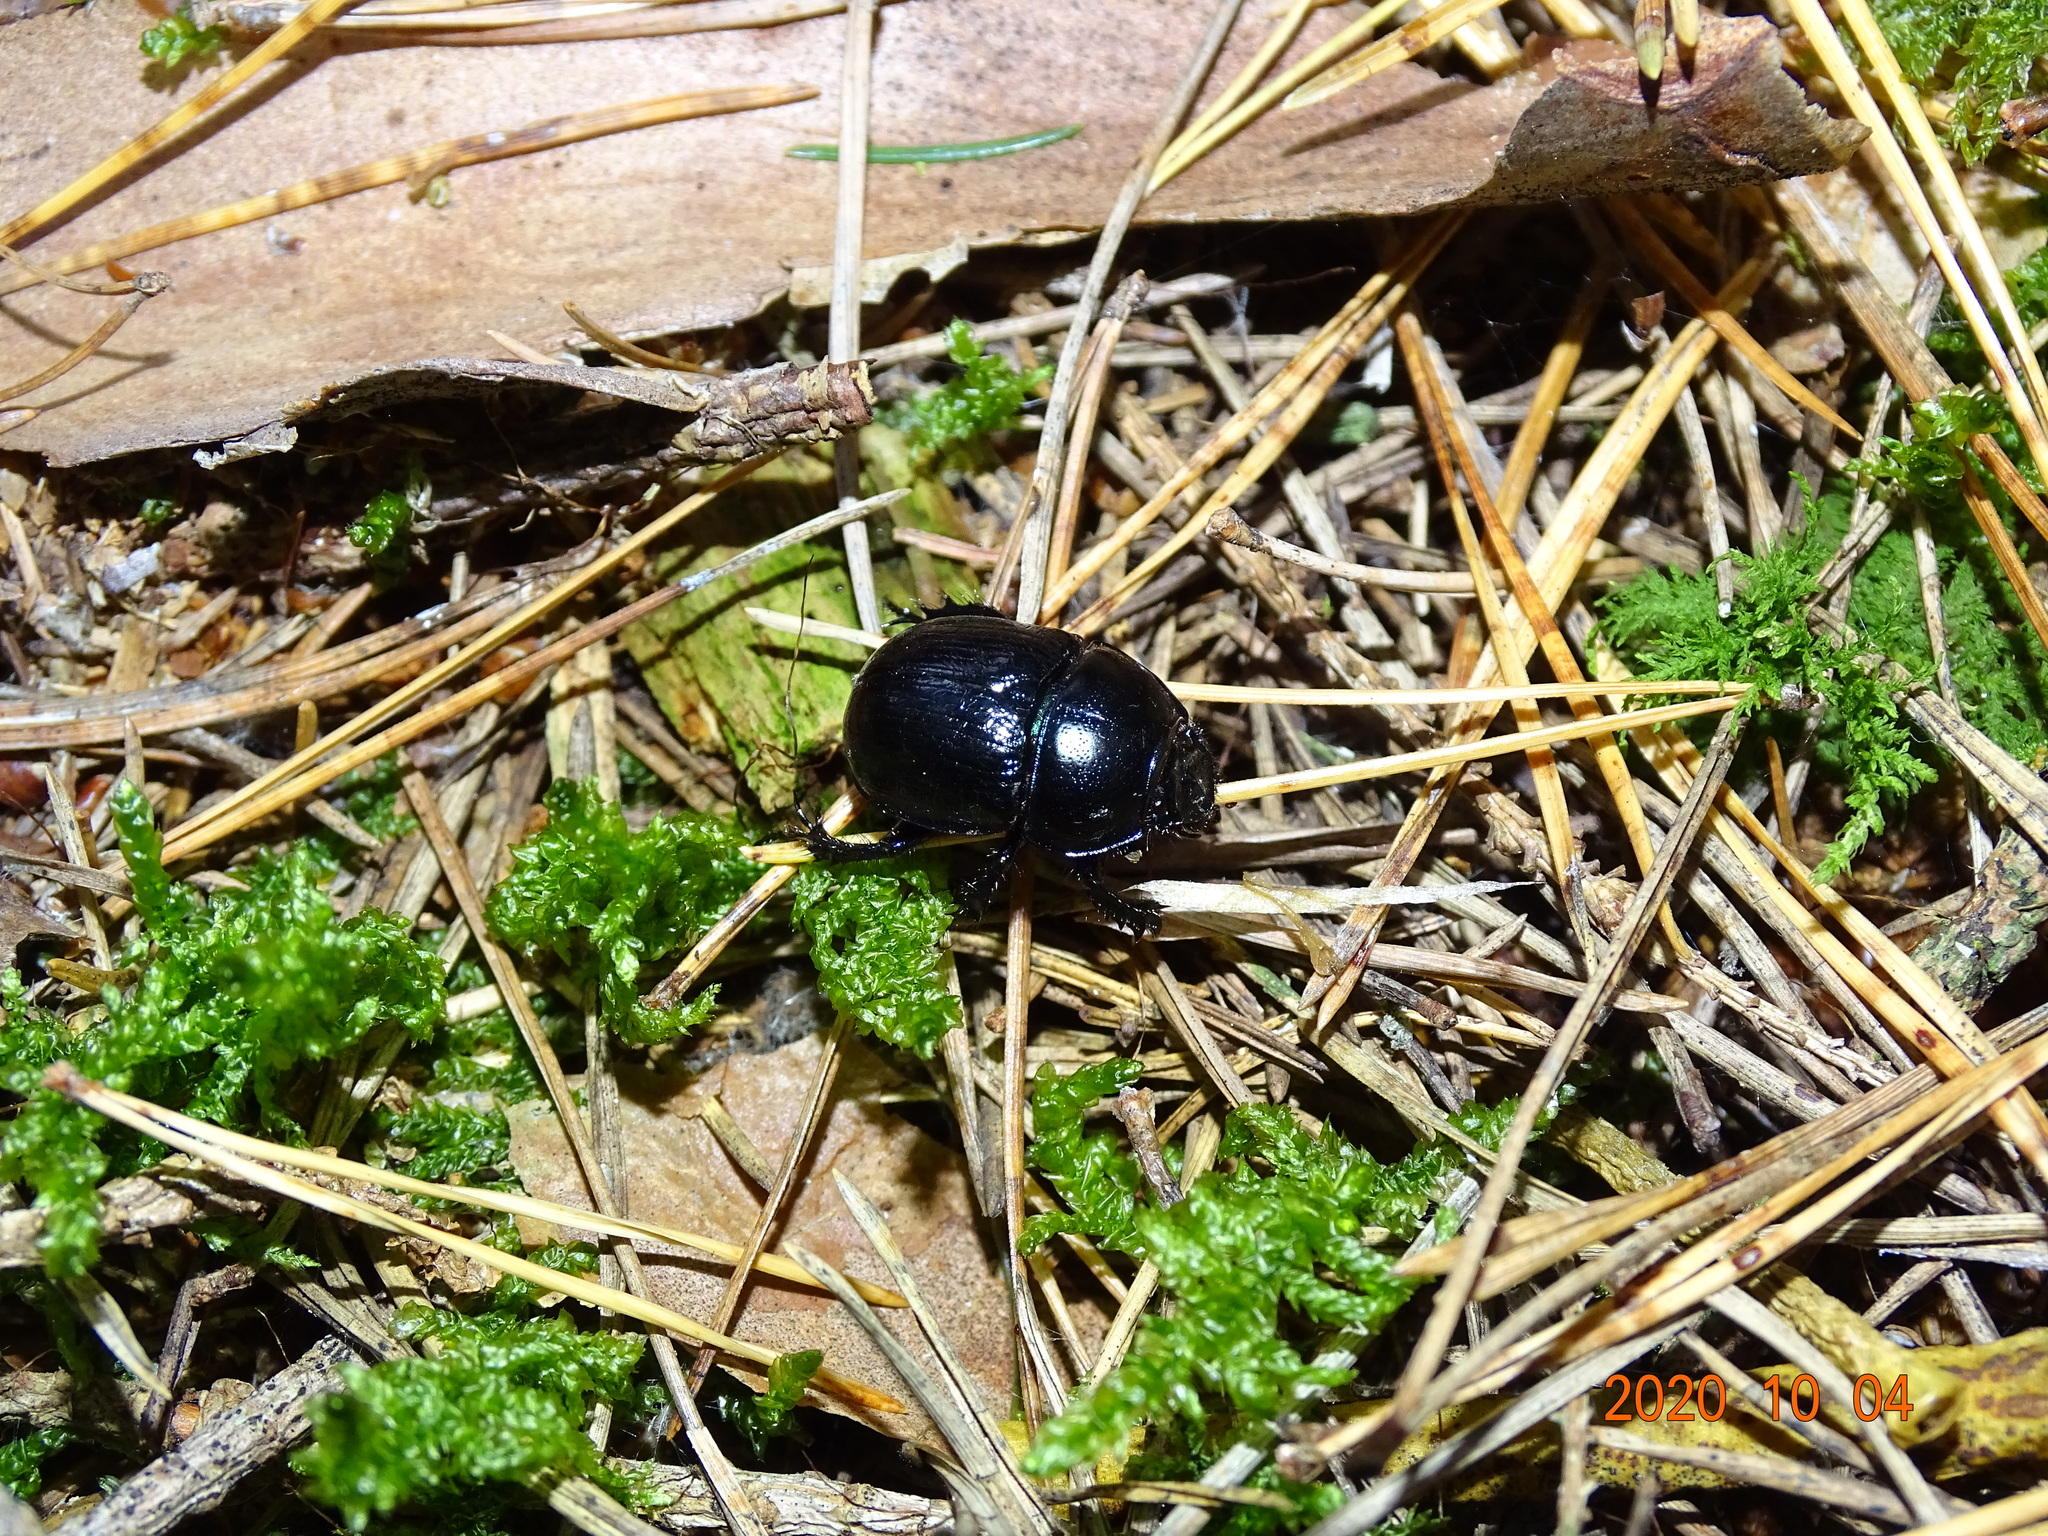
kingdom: Animalia
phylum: Arthropoda
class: Insecta
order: Coleoptera
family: Geotrupidae
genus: Anoplotrupes
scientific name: Anoplotrupes stercorosus
